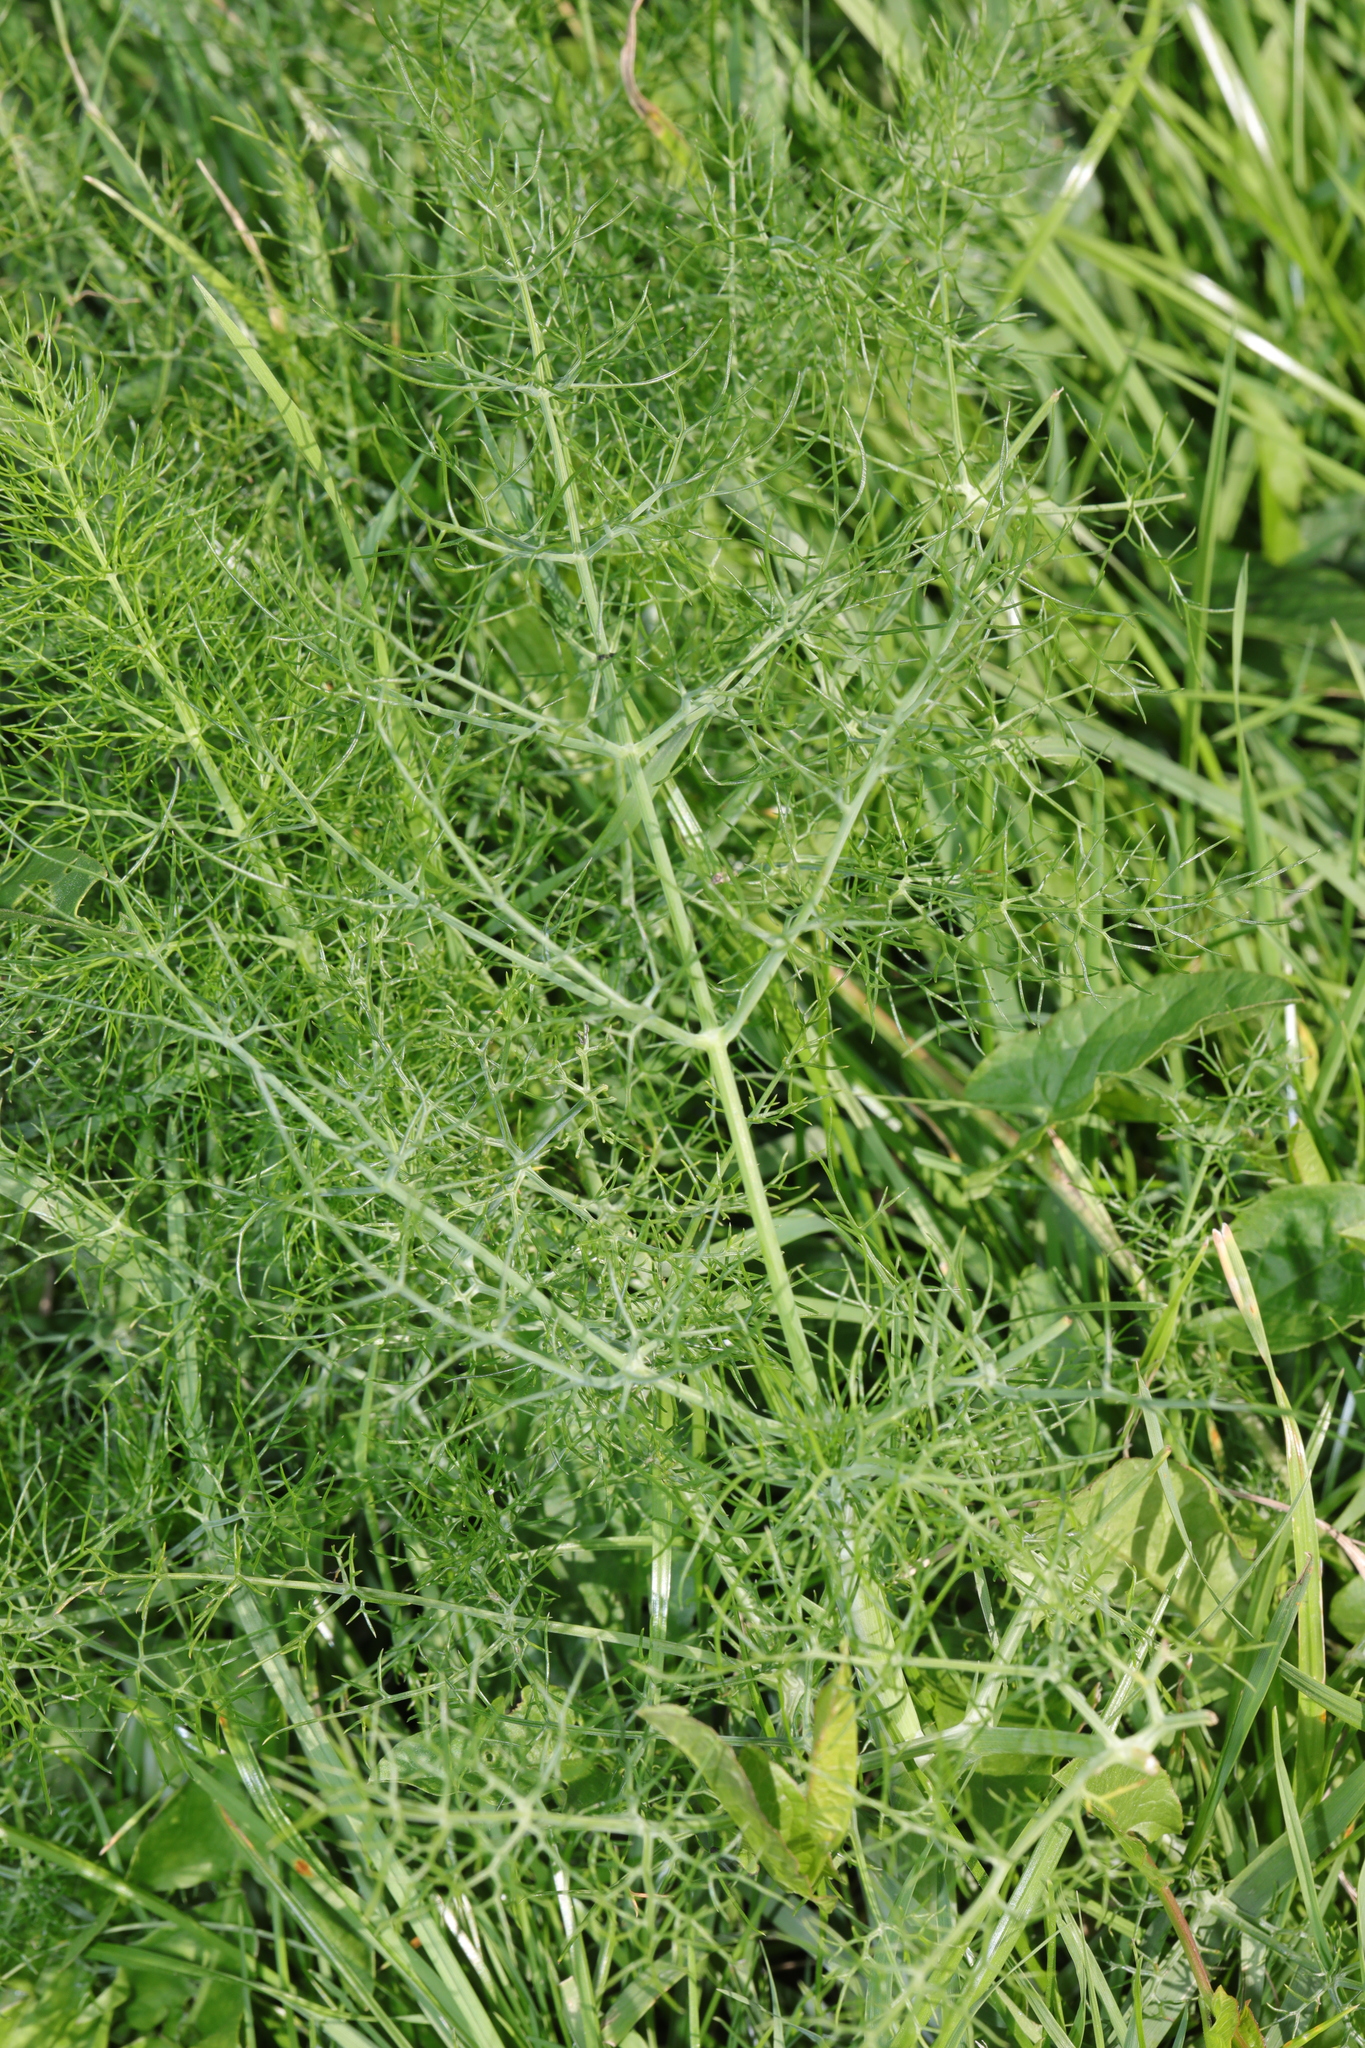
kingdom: Plantae
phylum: Tracheophyta
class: Magnoliopsida
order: Apiales
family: Apiaceae
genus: Foeniculum
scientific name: Foeniculum vulgare
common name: Fennel
